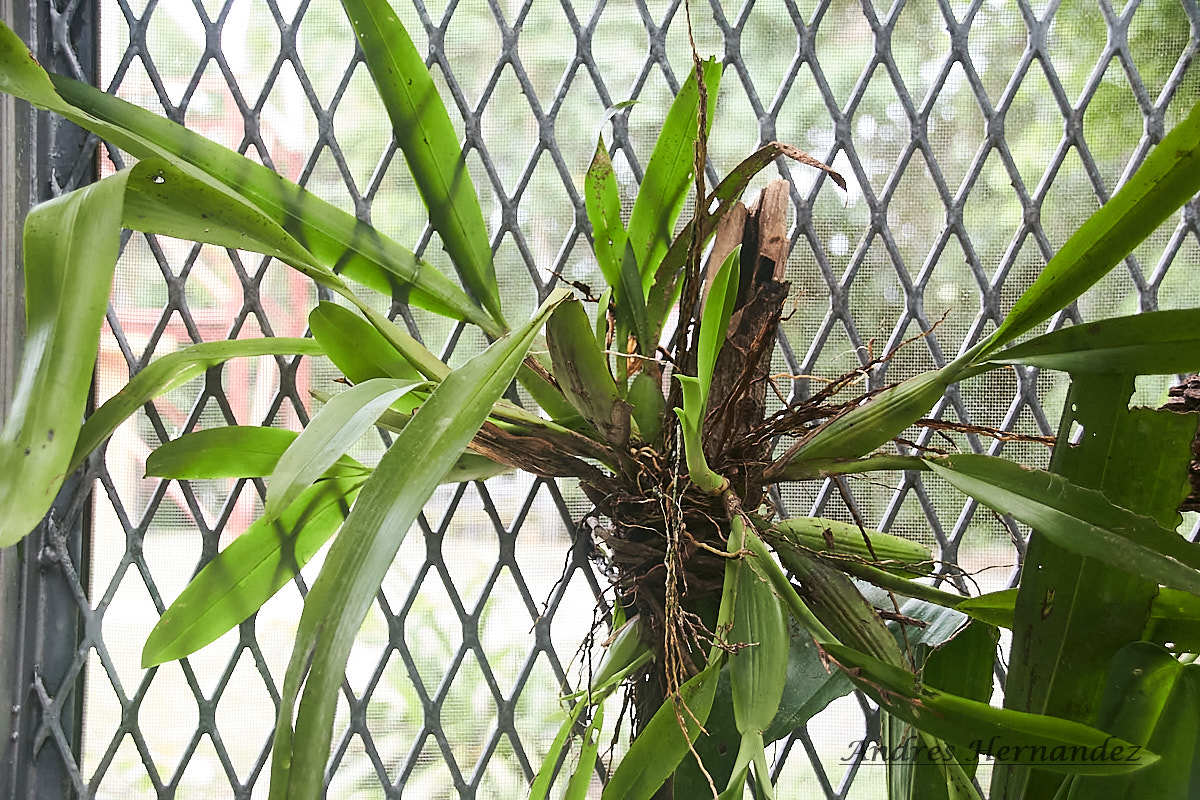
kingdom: Plantae
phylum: Tracheophyta
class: Liliopsida
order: Asparagales
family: Orchidaceae
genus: Aspasia
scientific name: Aspasia principissa
